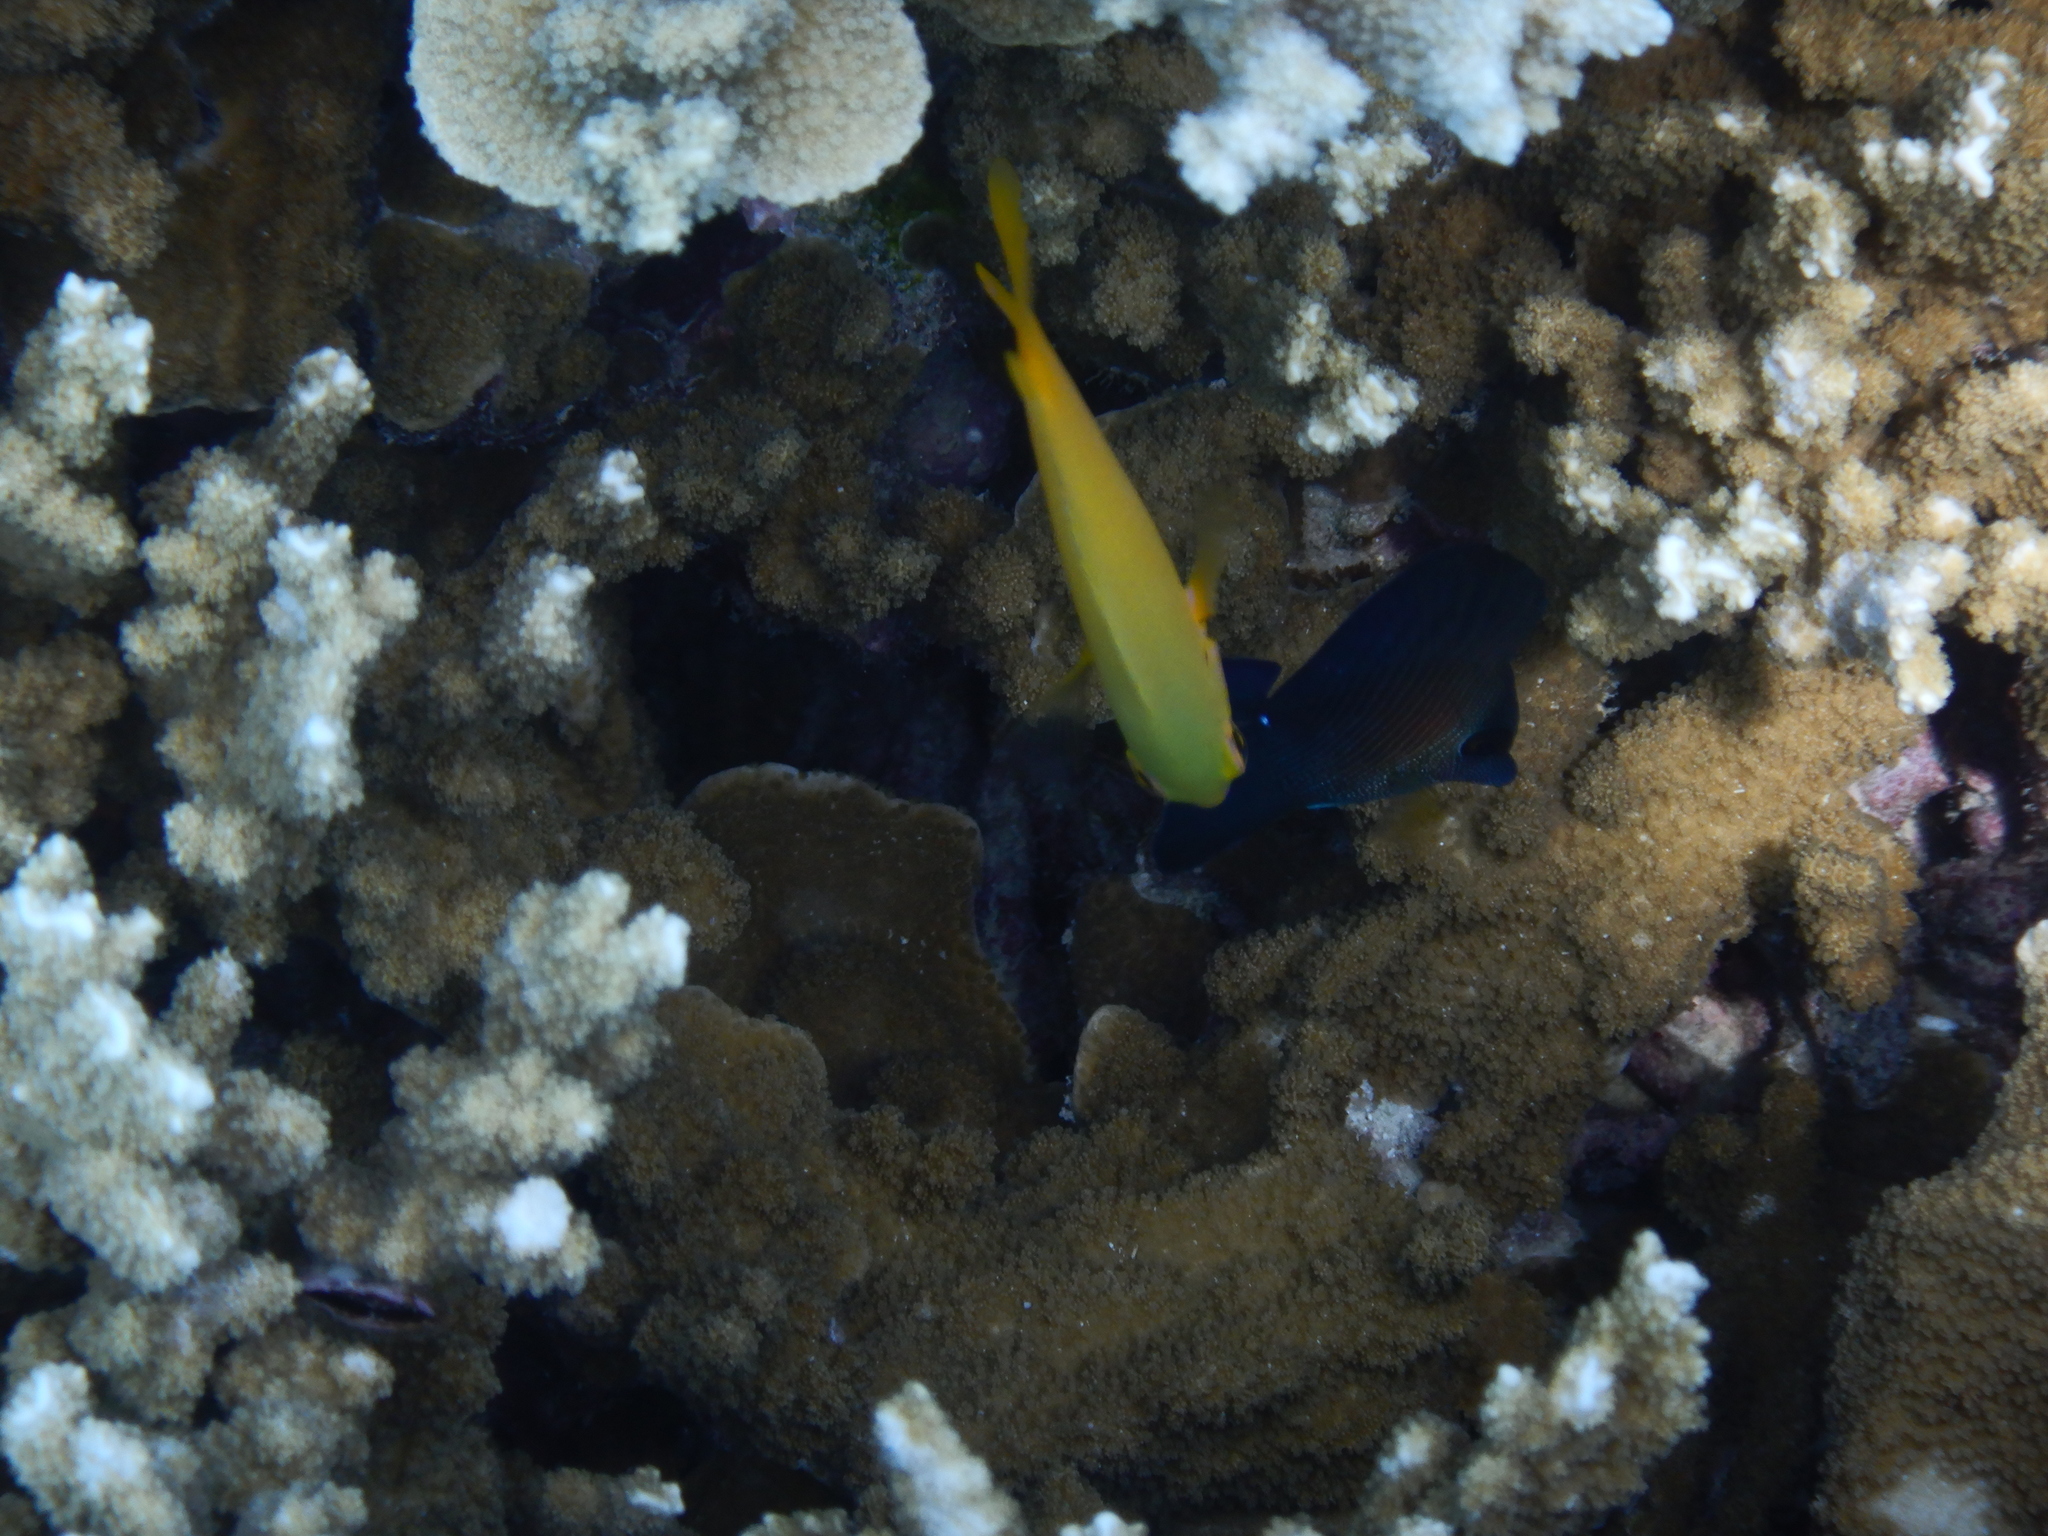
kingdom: Animalia
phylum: Chordata
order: Perciformes
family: Pomacentridae
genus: Pomacentrus
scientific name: Pomacentrus moluccensis
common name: Lemon damsel
